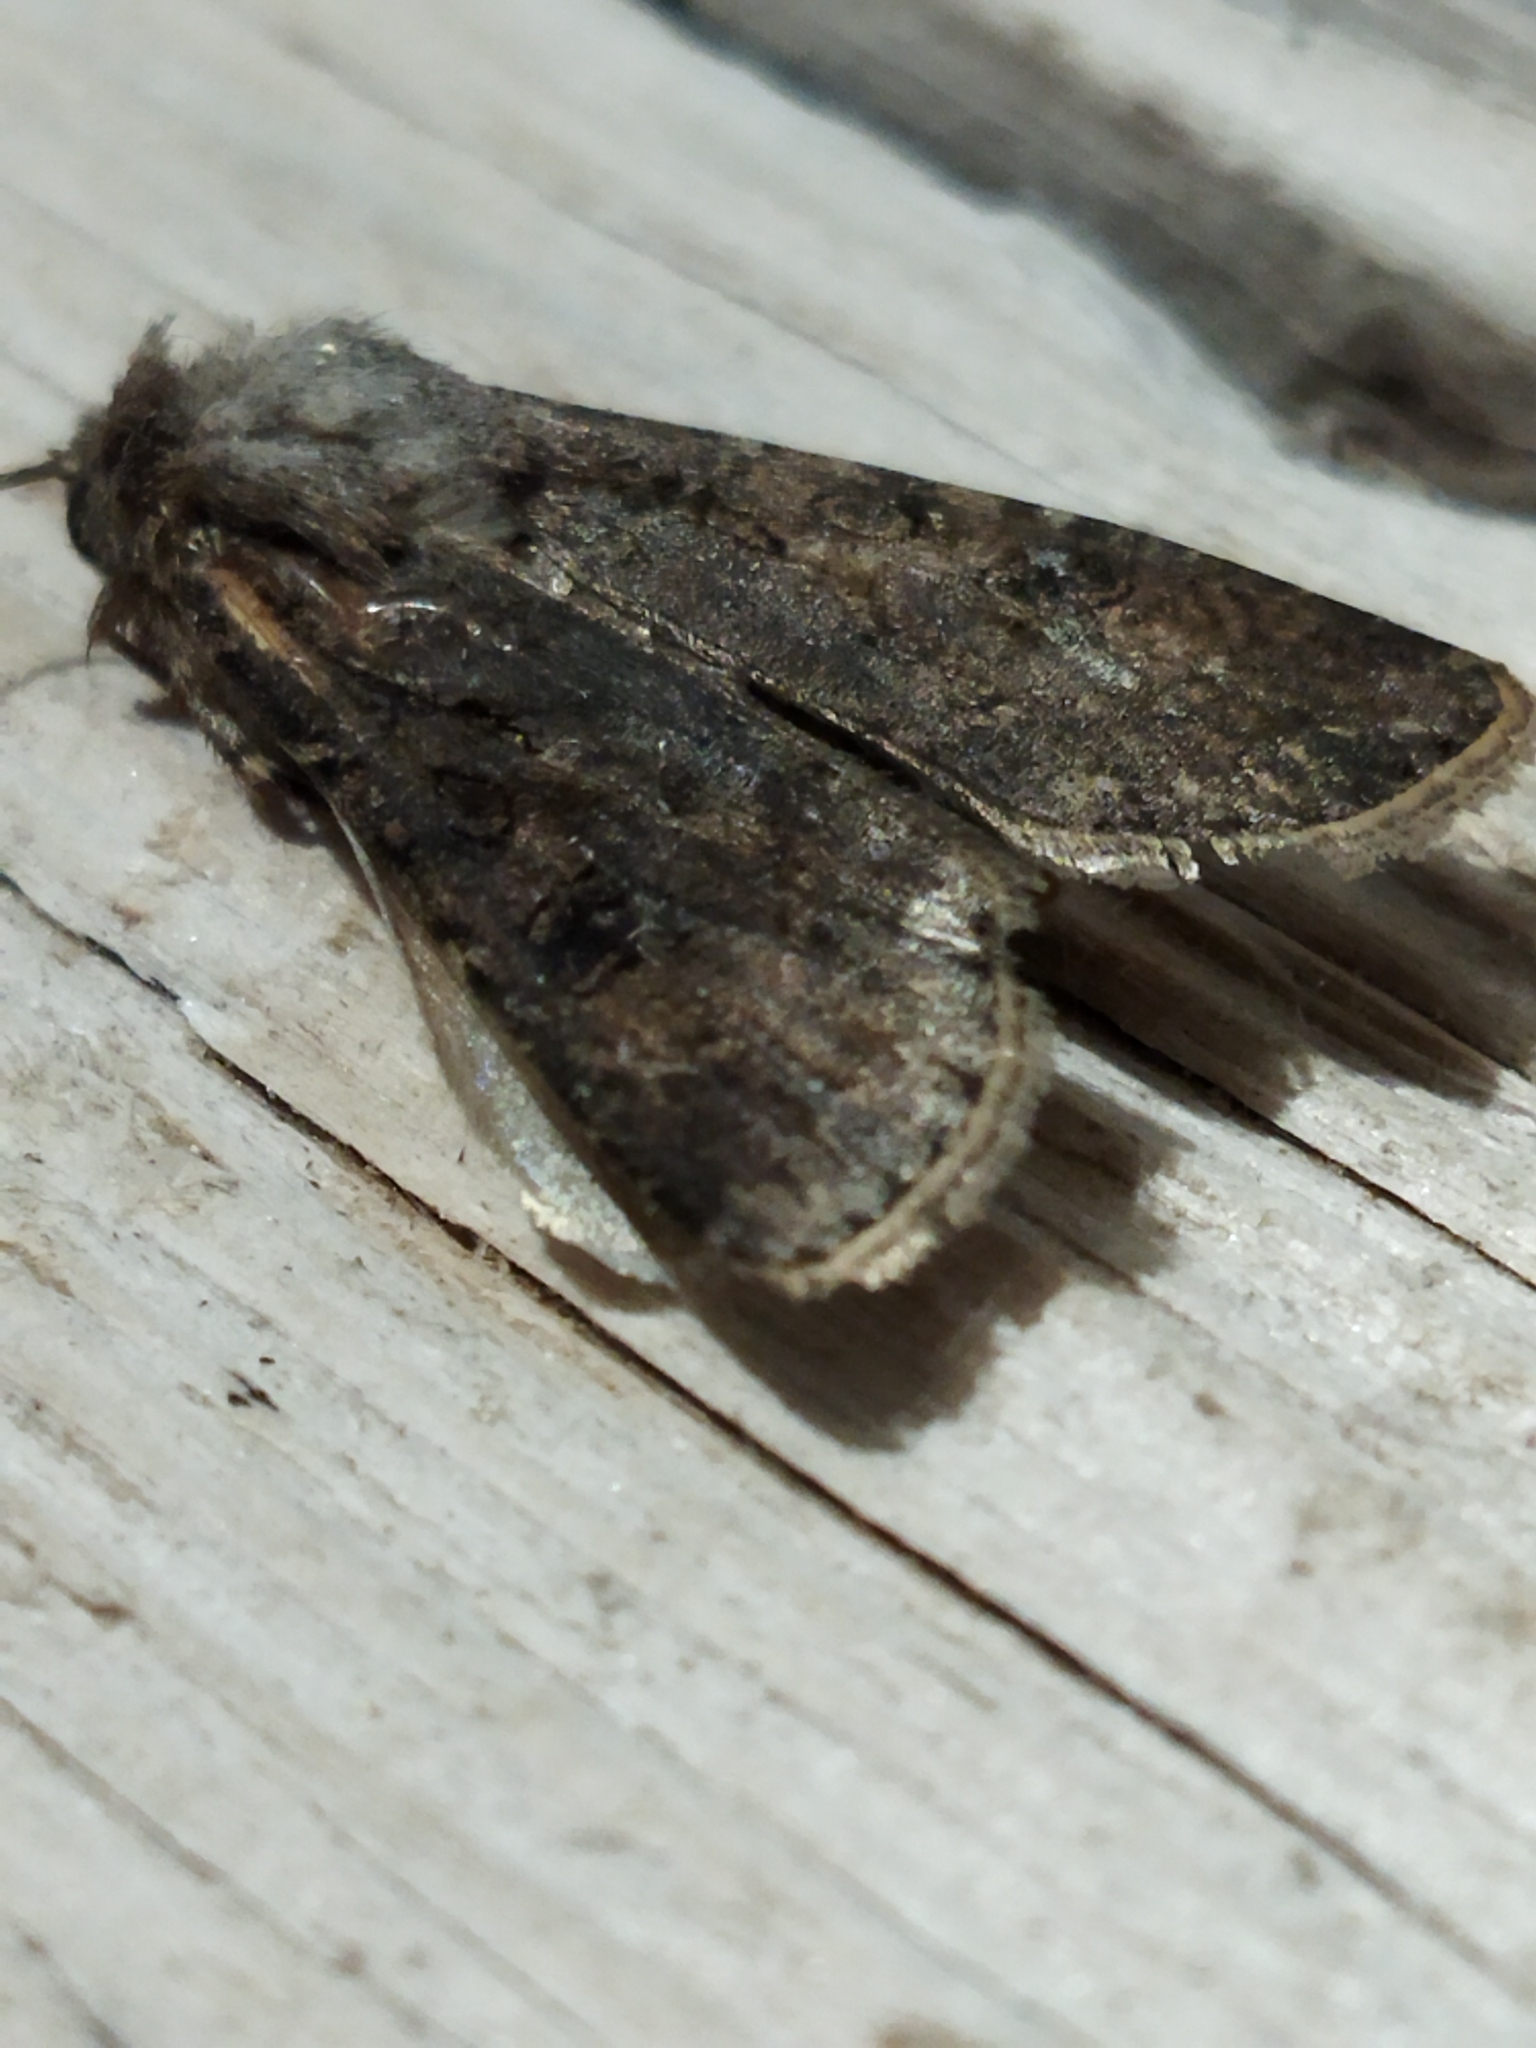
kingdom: Animalia
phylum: Arthropoda
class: Insecta
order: Lepidoptera
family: Noctuidae
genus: Agrotis
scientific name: Agrotis segetum
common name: Turnip moth
